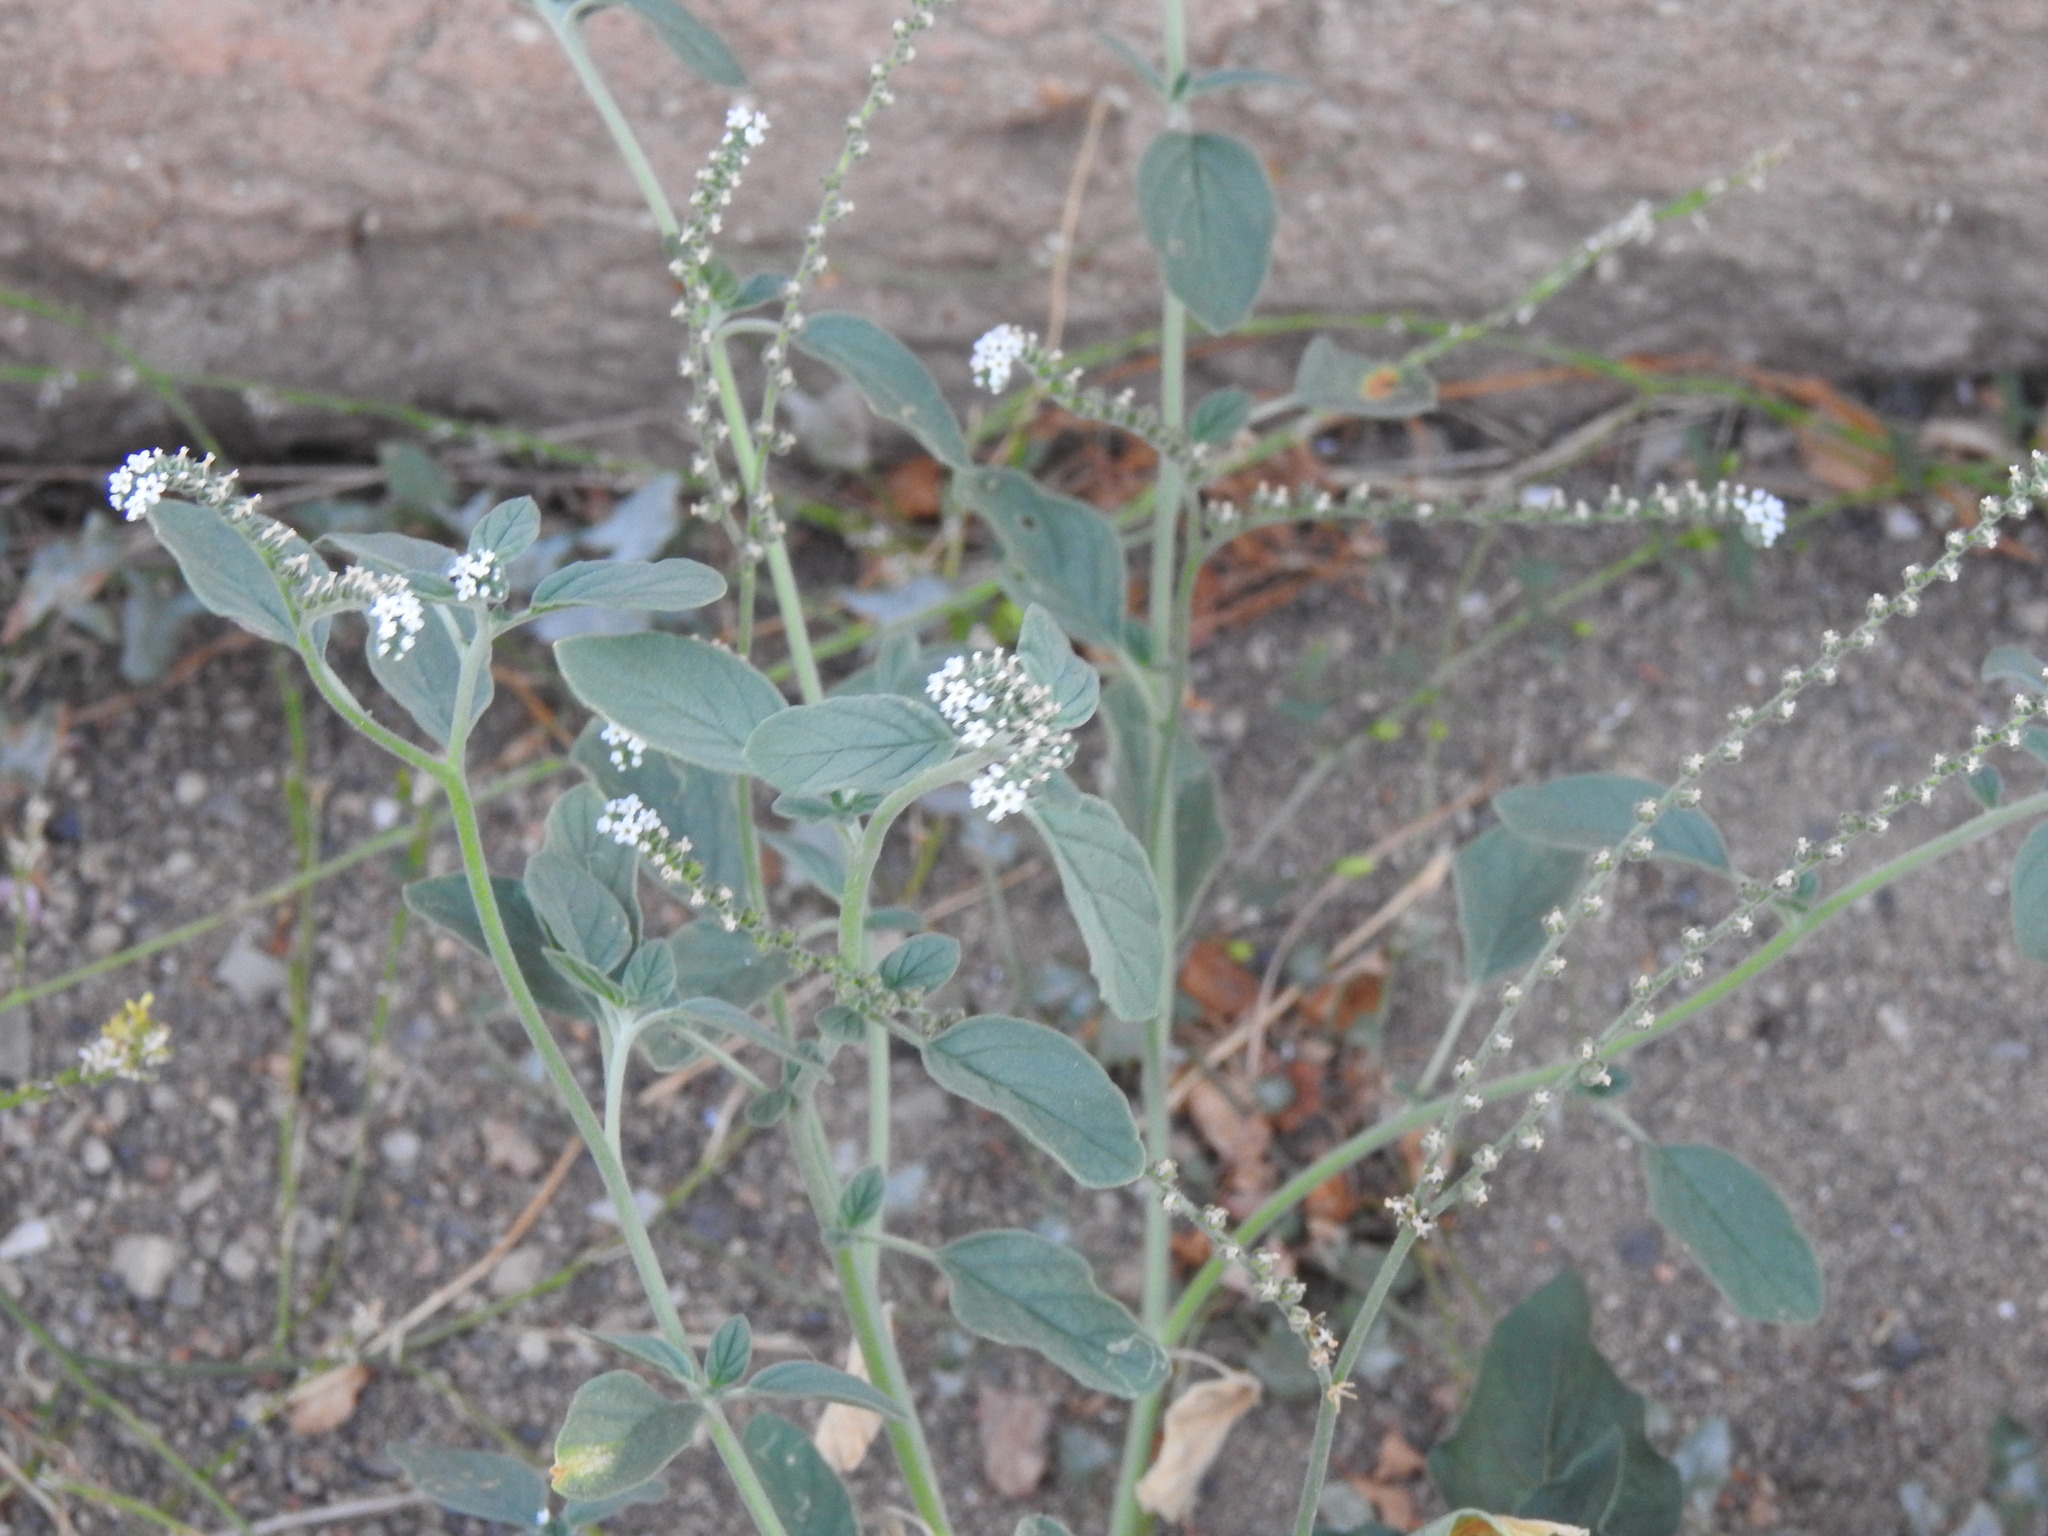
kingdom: Plantae
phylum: Tracheophyta
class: Magnoliopsida
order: Boraginales
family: Heliotropiaceae
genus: Heliotropium
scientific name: Heliotropium europaeum
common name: European heliotrope
